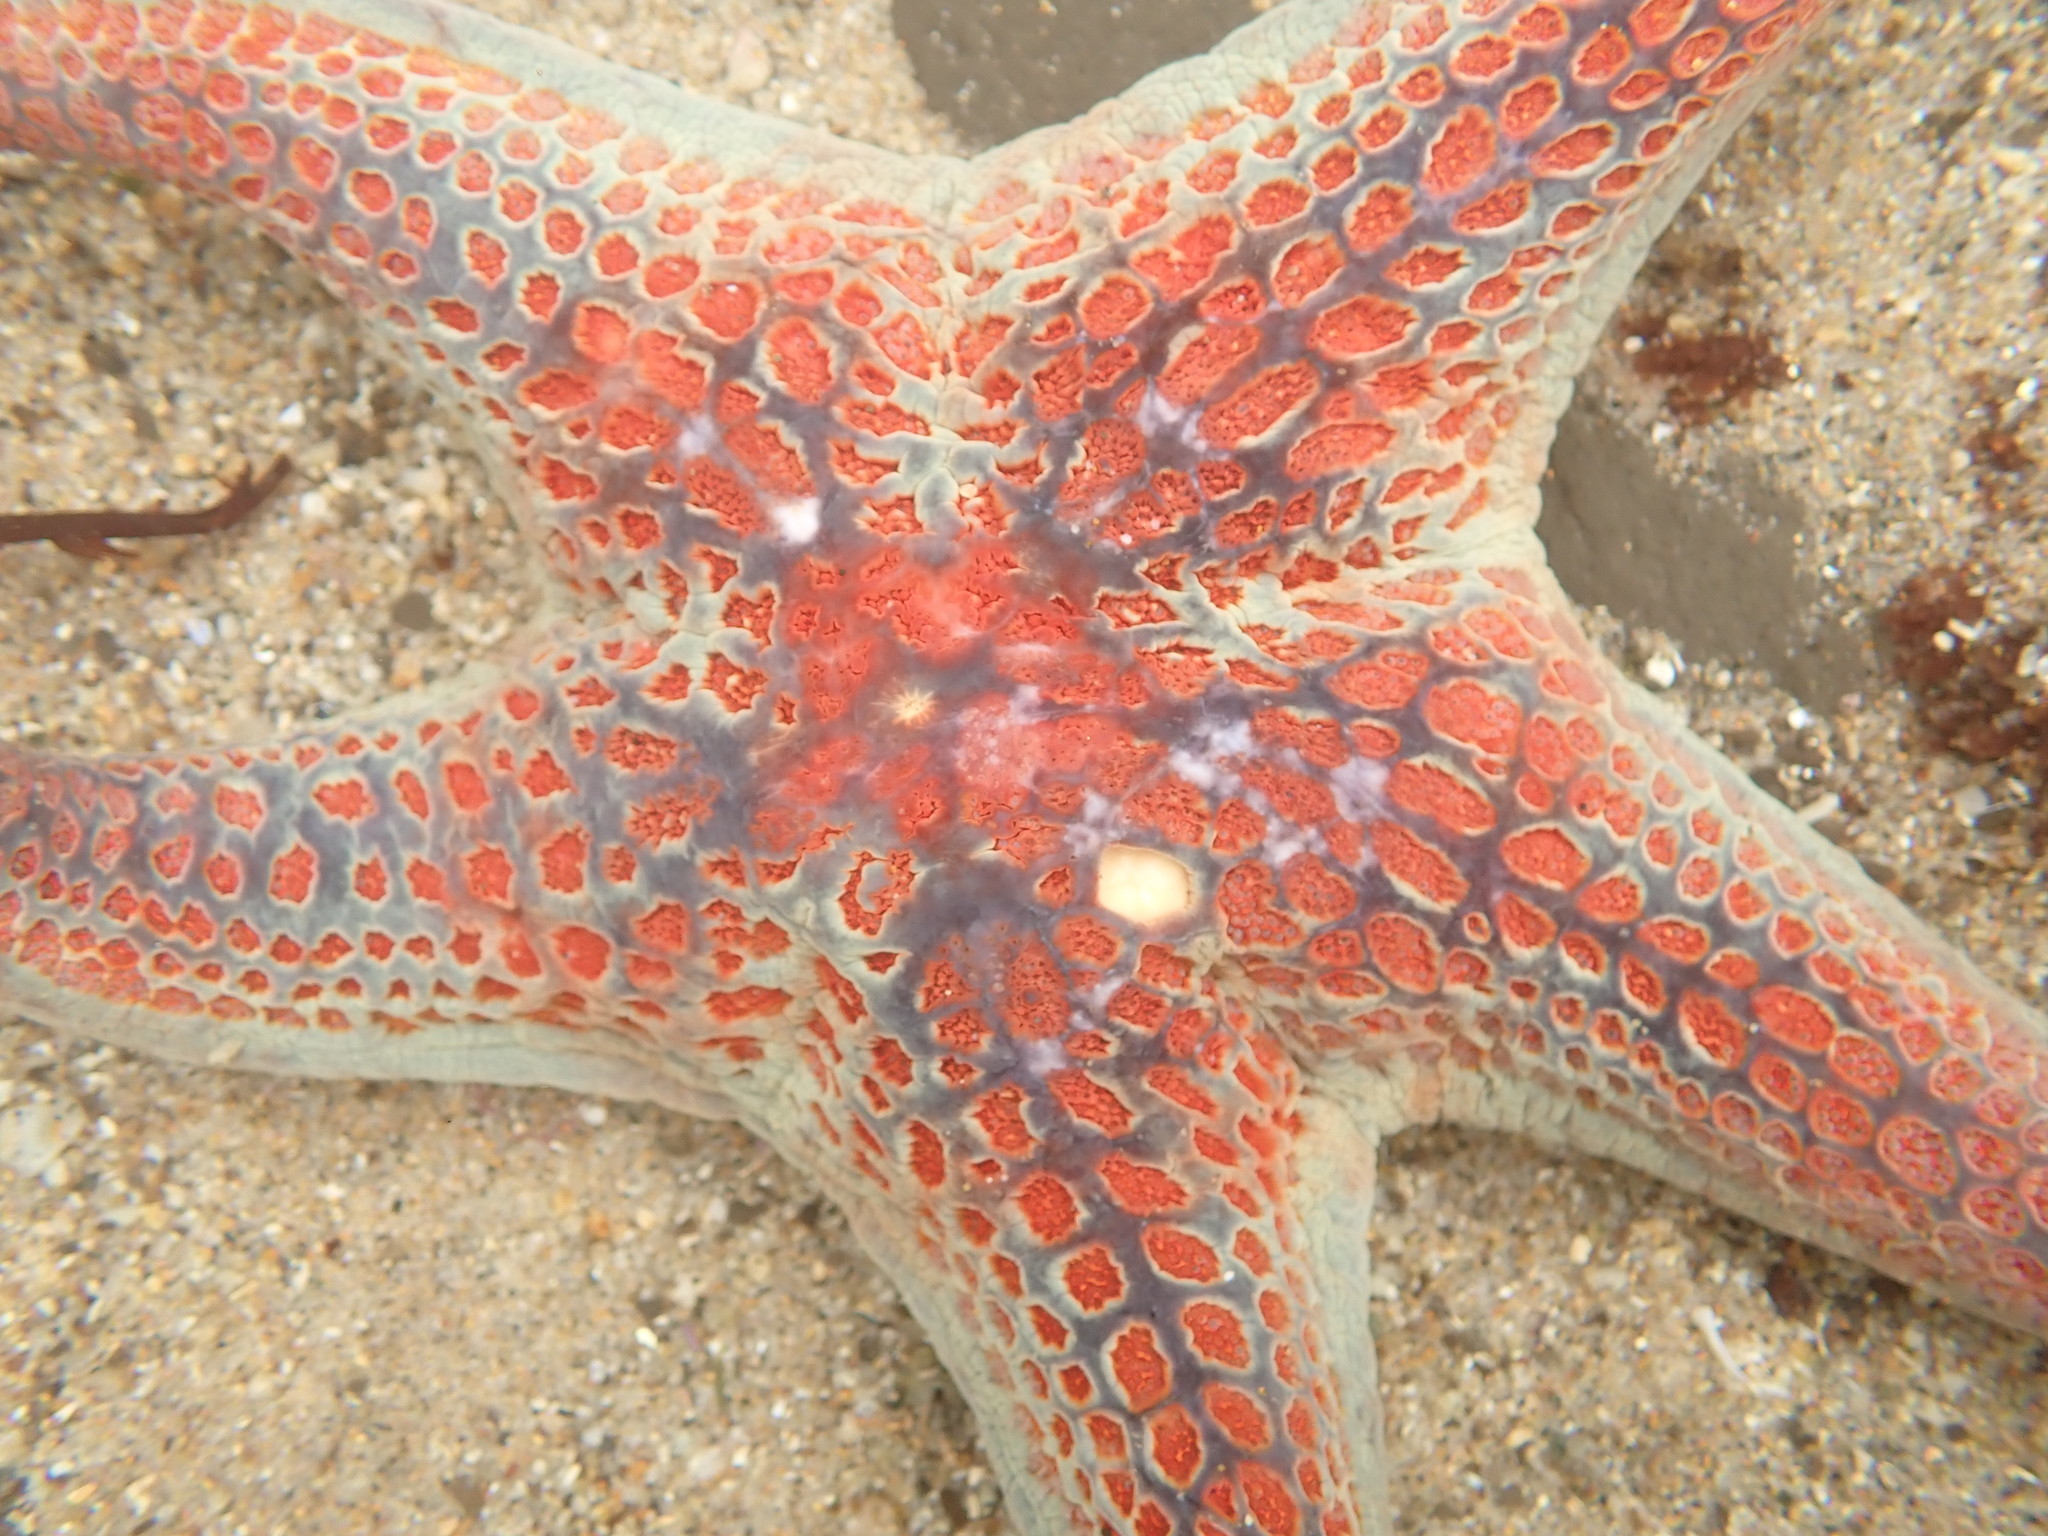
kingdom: Animalia
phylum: Echinodermata
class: Asteroidea
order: Valvatida
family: Asteropseidae
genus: Dermasterias
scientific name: Dermasterias imbricata
